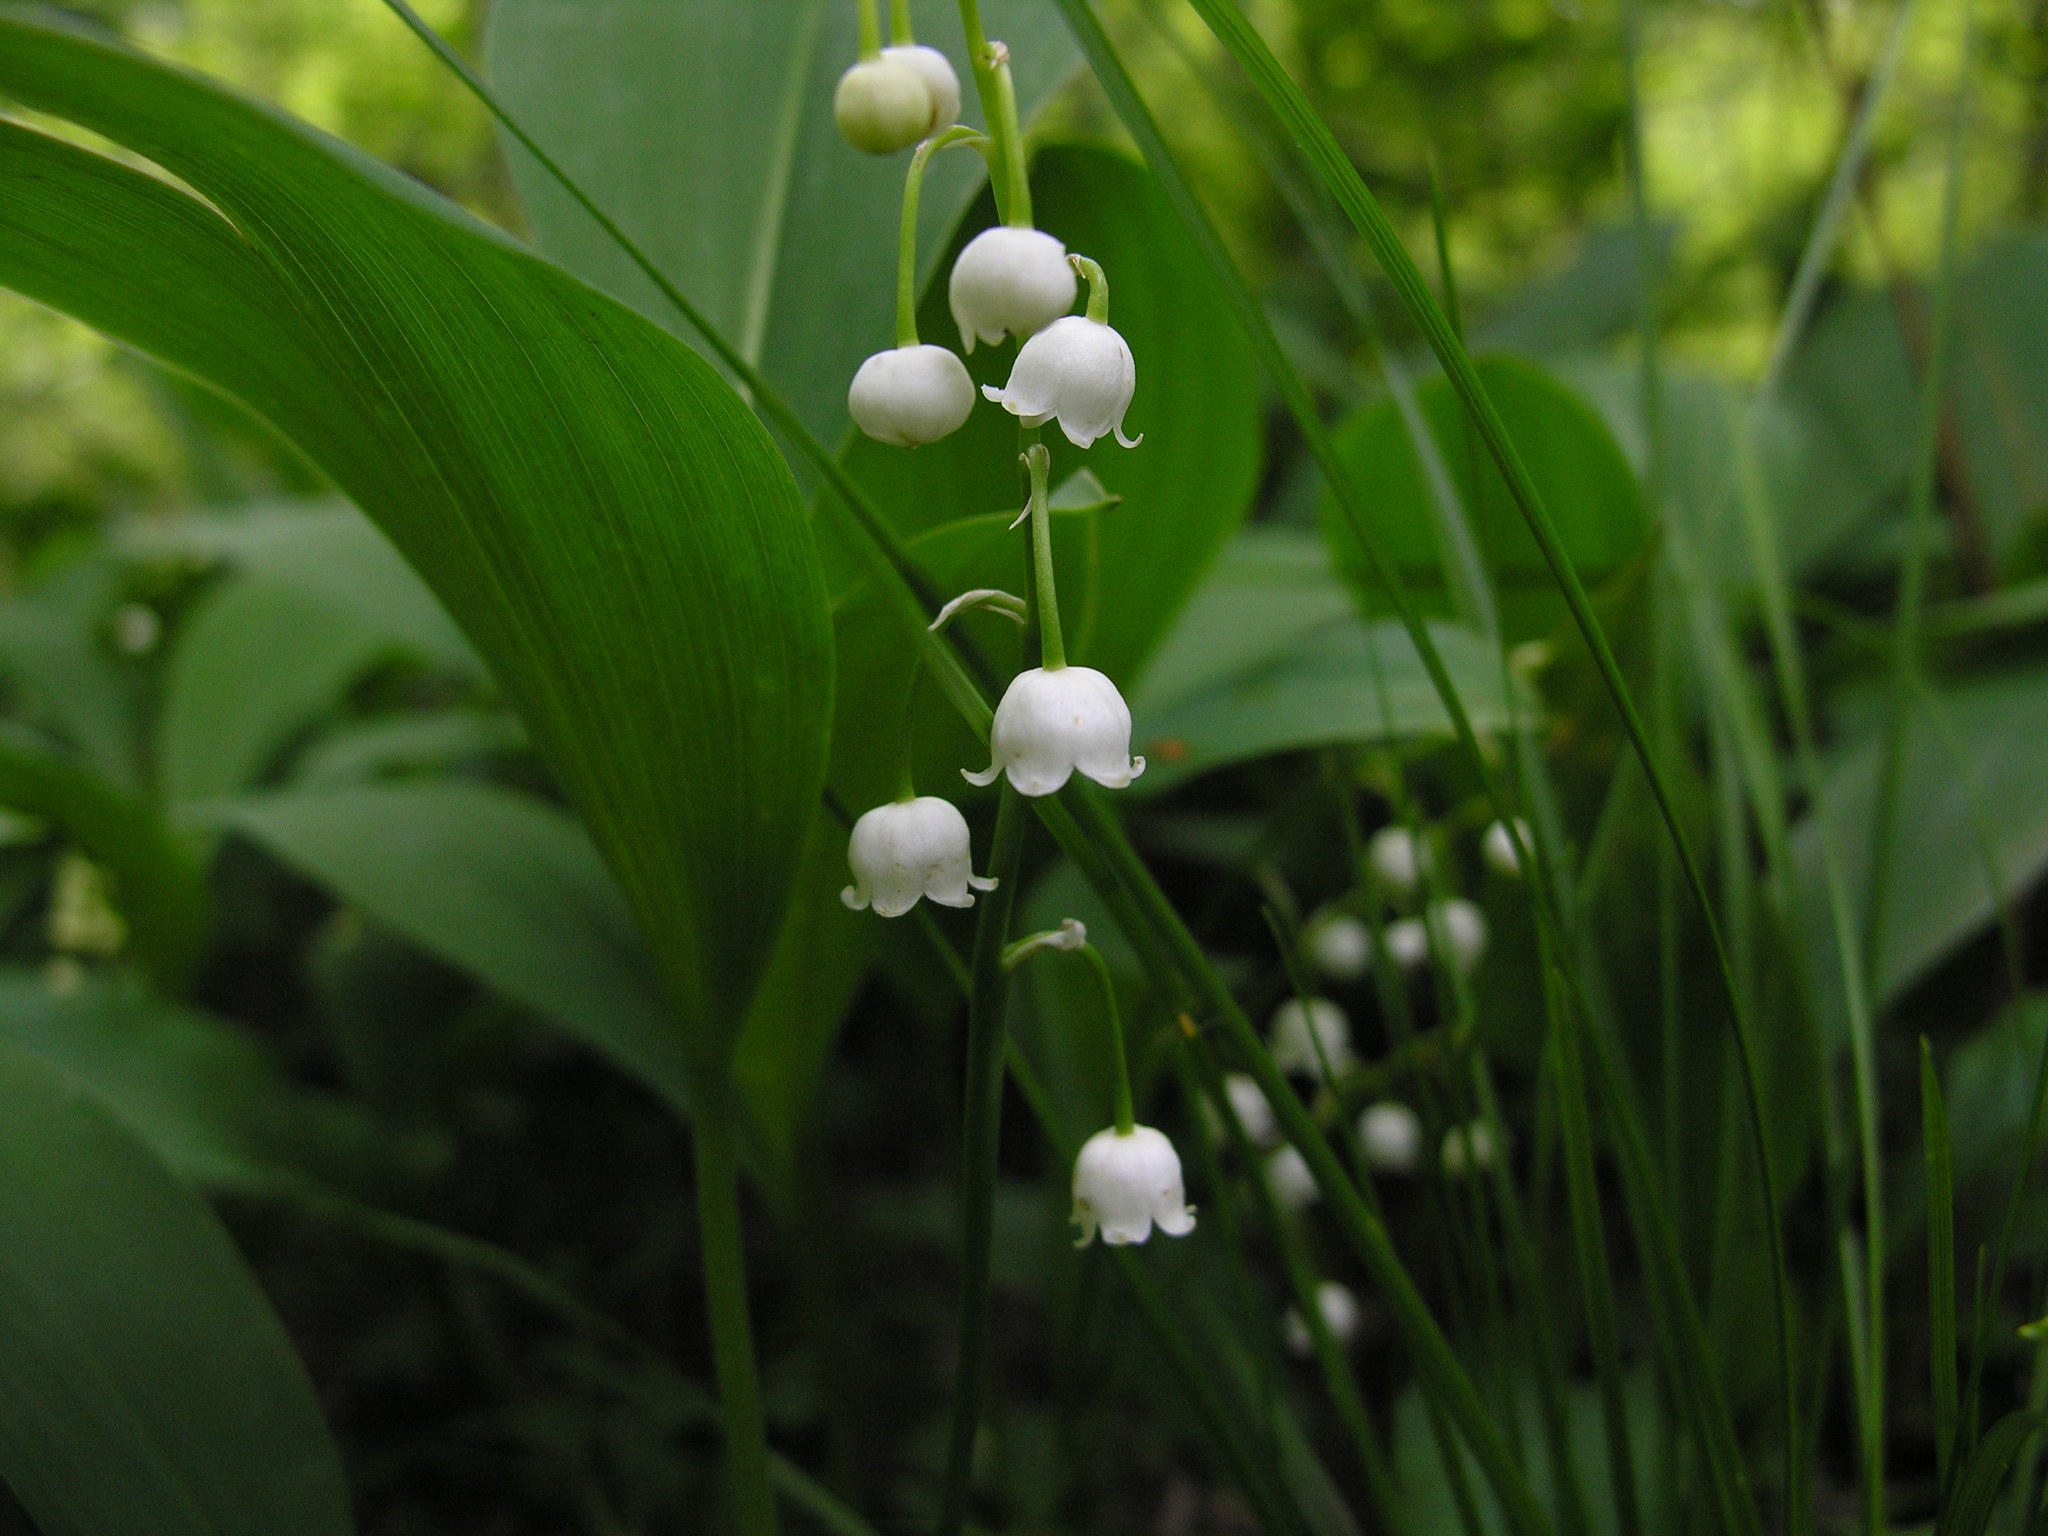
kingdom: Plantae
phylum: Tracheophyta
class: Liliopsida
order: Asparagales
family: Asparagaceae
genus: Convallaria
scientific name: Convallaria majalis
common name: Lily-of-the-valley
